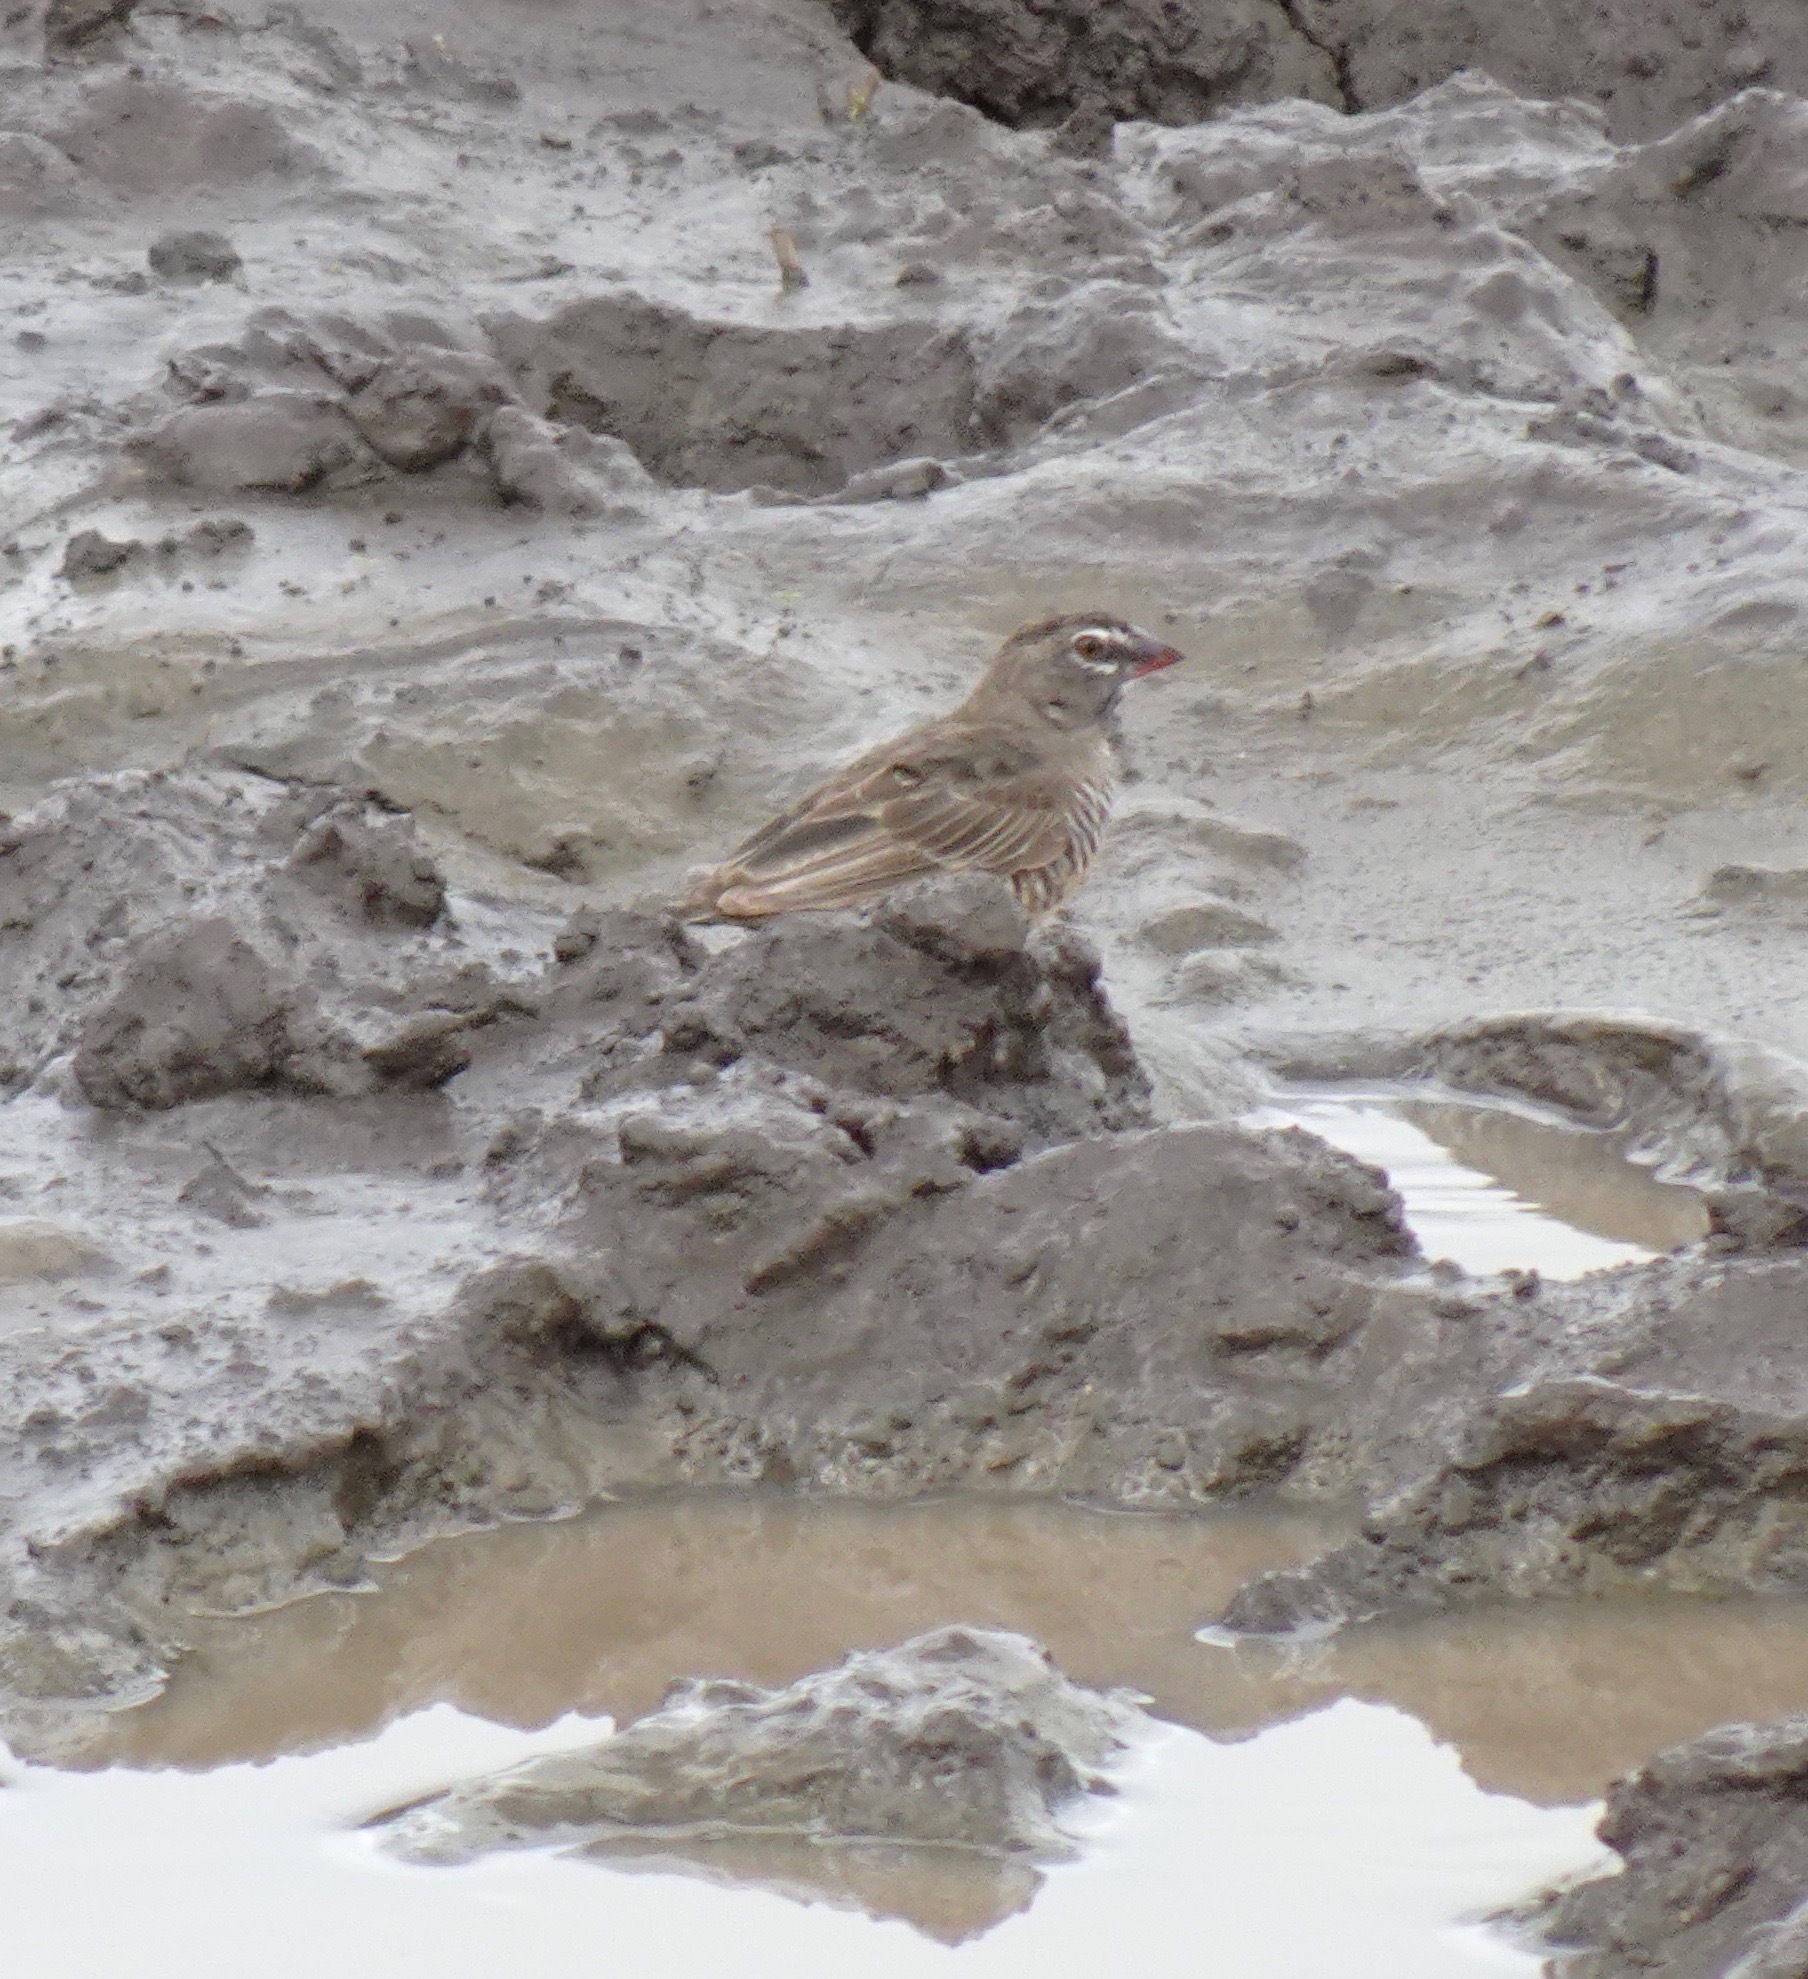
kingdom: Animalia
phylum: Chordata
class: Aves
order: Passeriformes
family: Estrildidae
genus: Ortygospiza
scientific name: Ortygospiza atricollis
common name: Quailfinch
